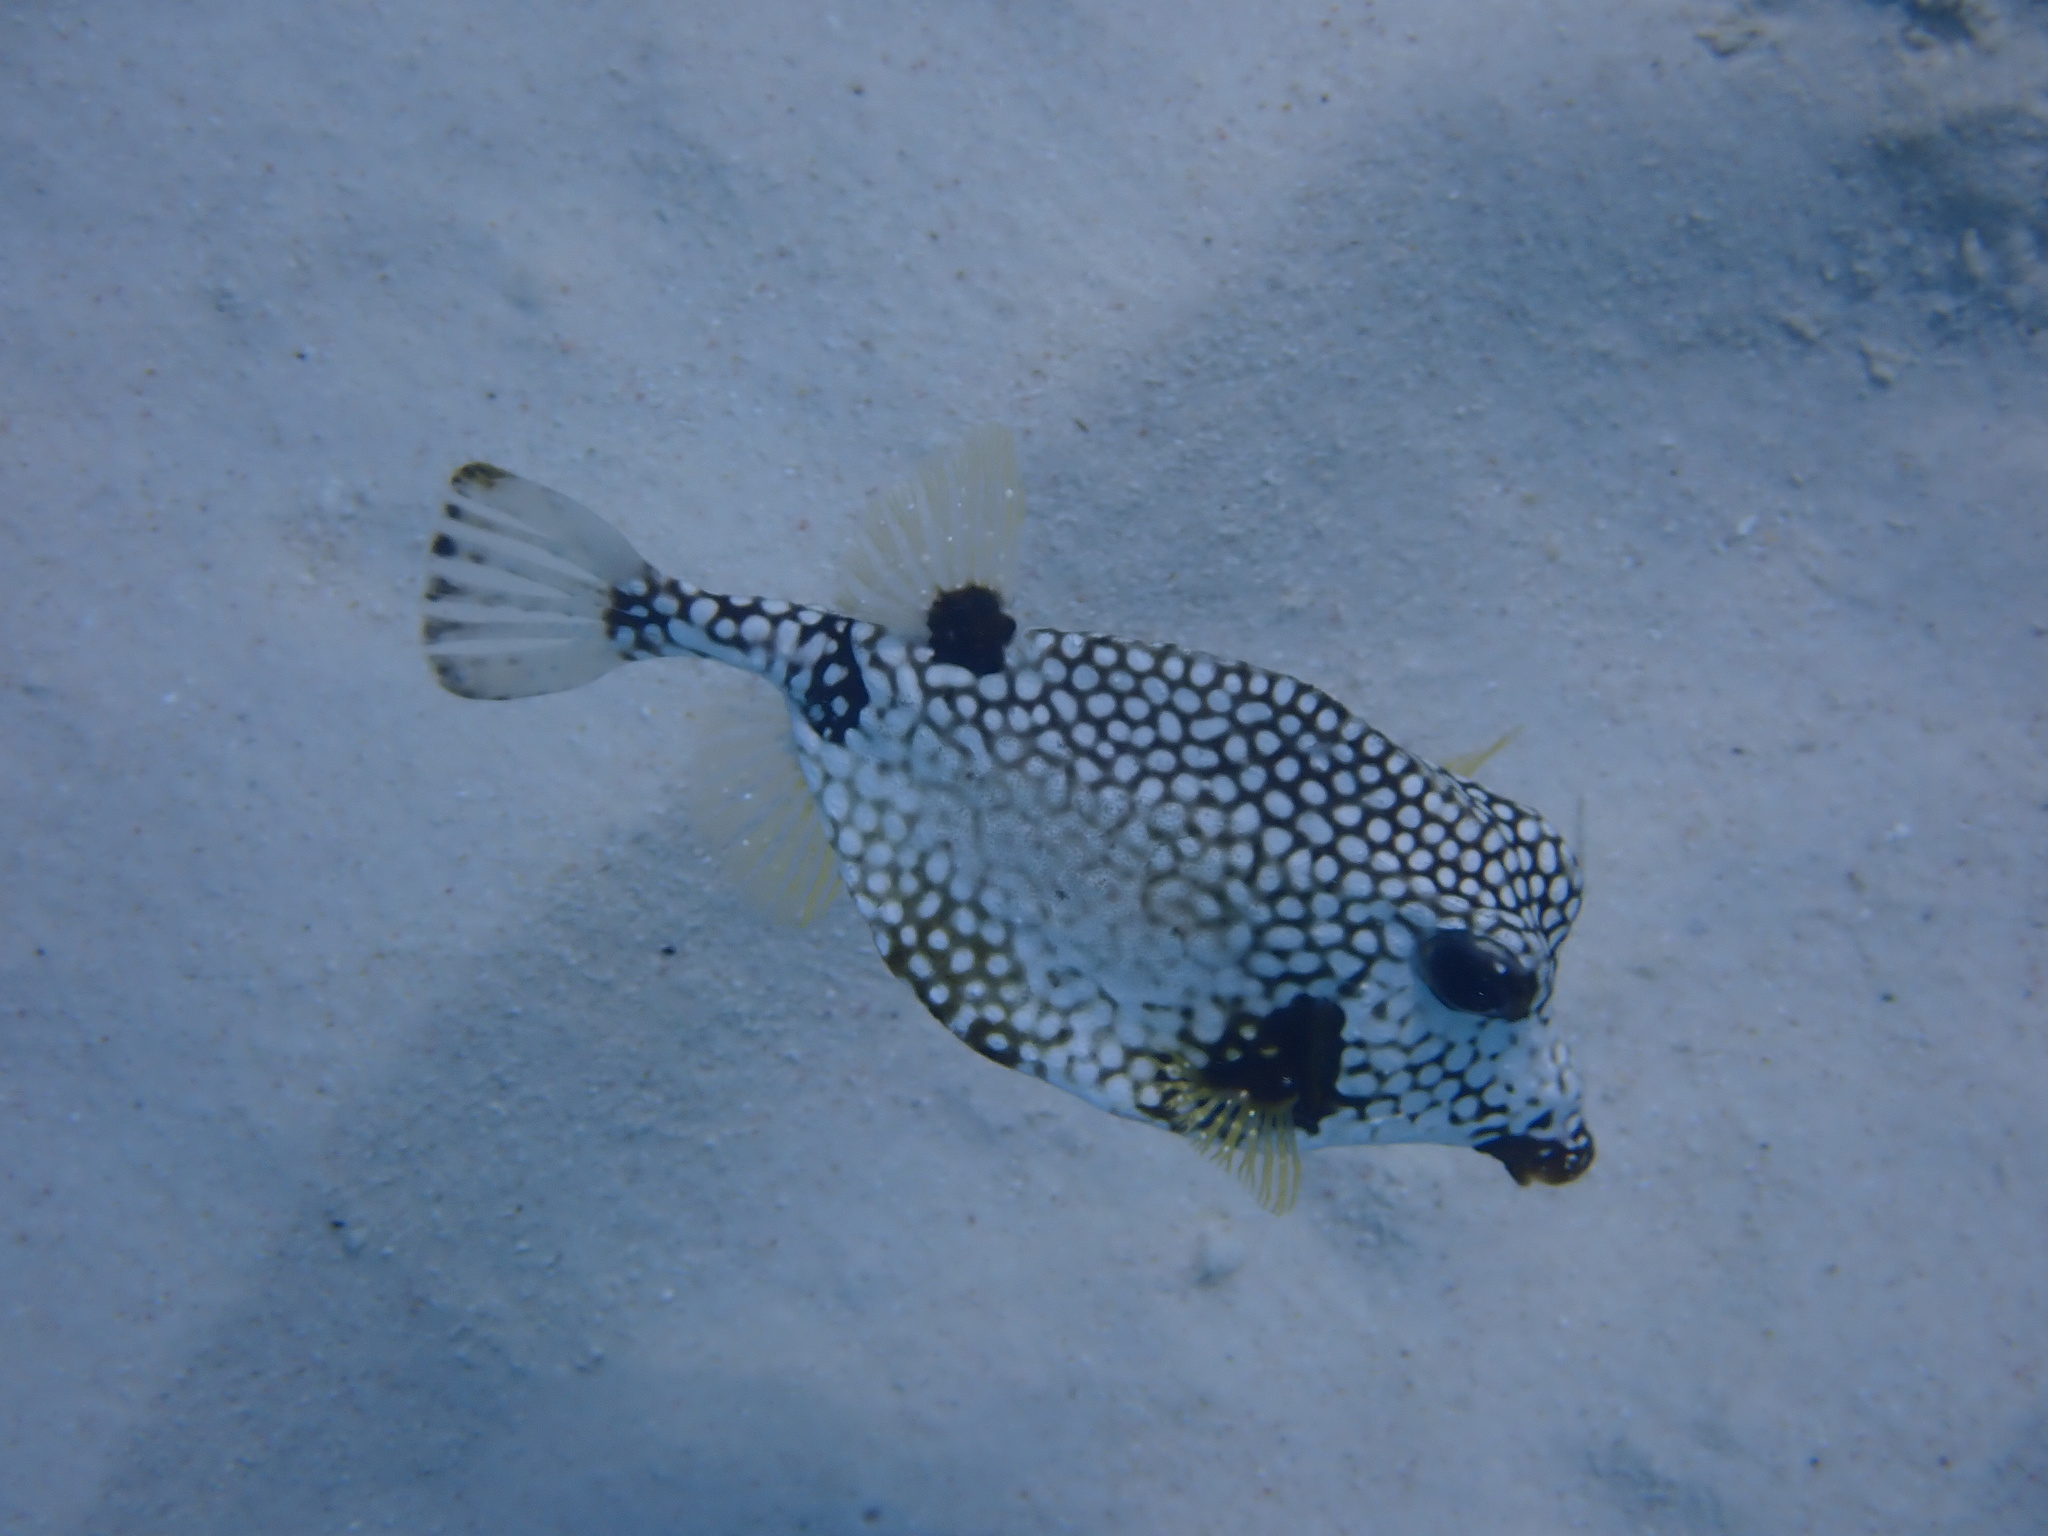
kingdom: Animalia
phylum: Chordata
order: Tetraodontiformes
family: Ostraciidae
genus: Lactophrys
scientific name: Lactophrys triqueter
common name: Smooth trunkfish
